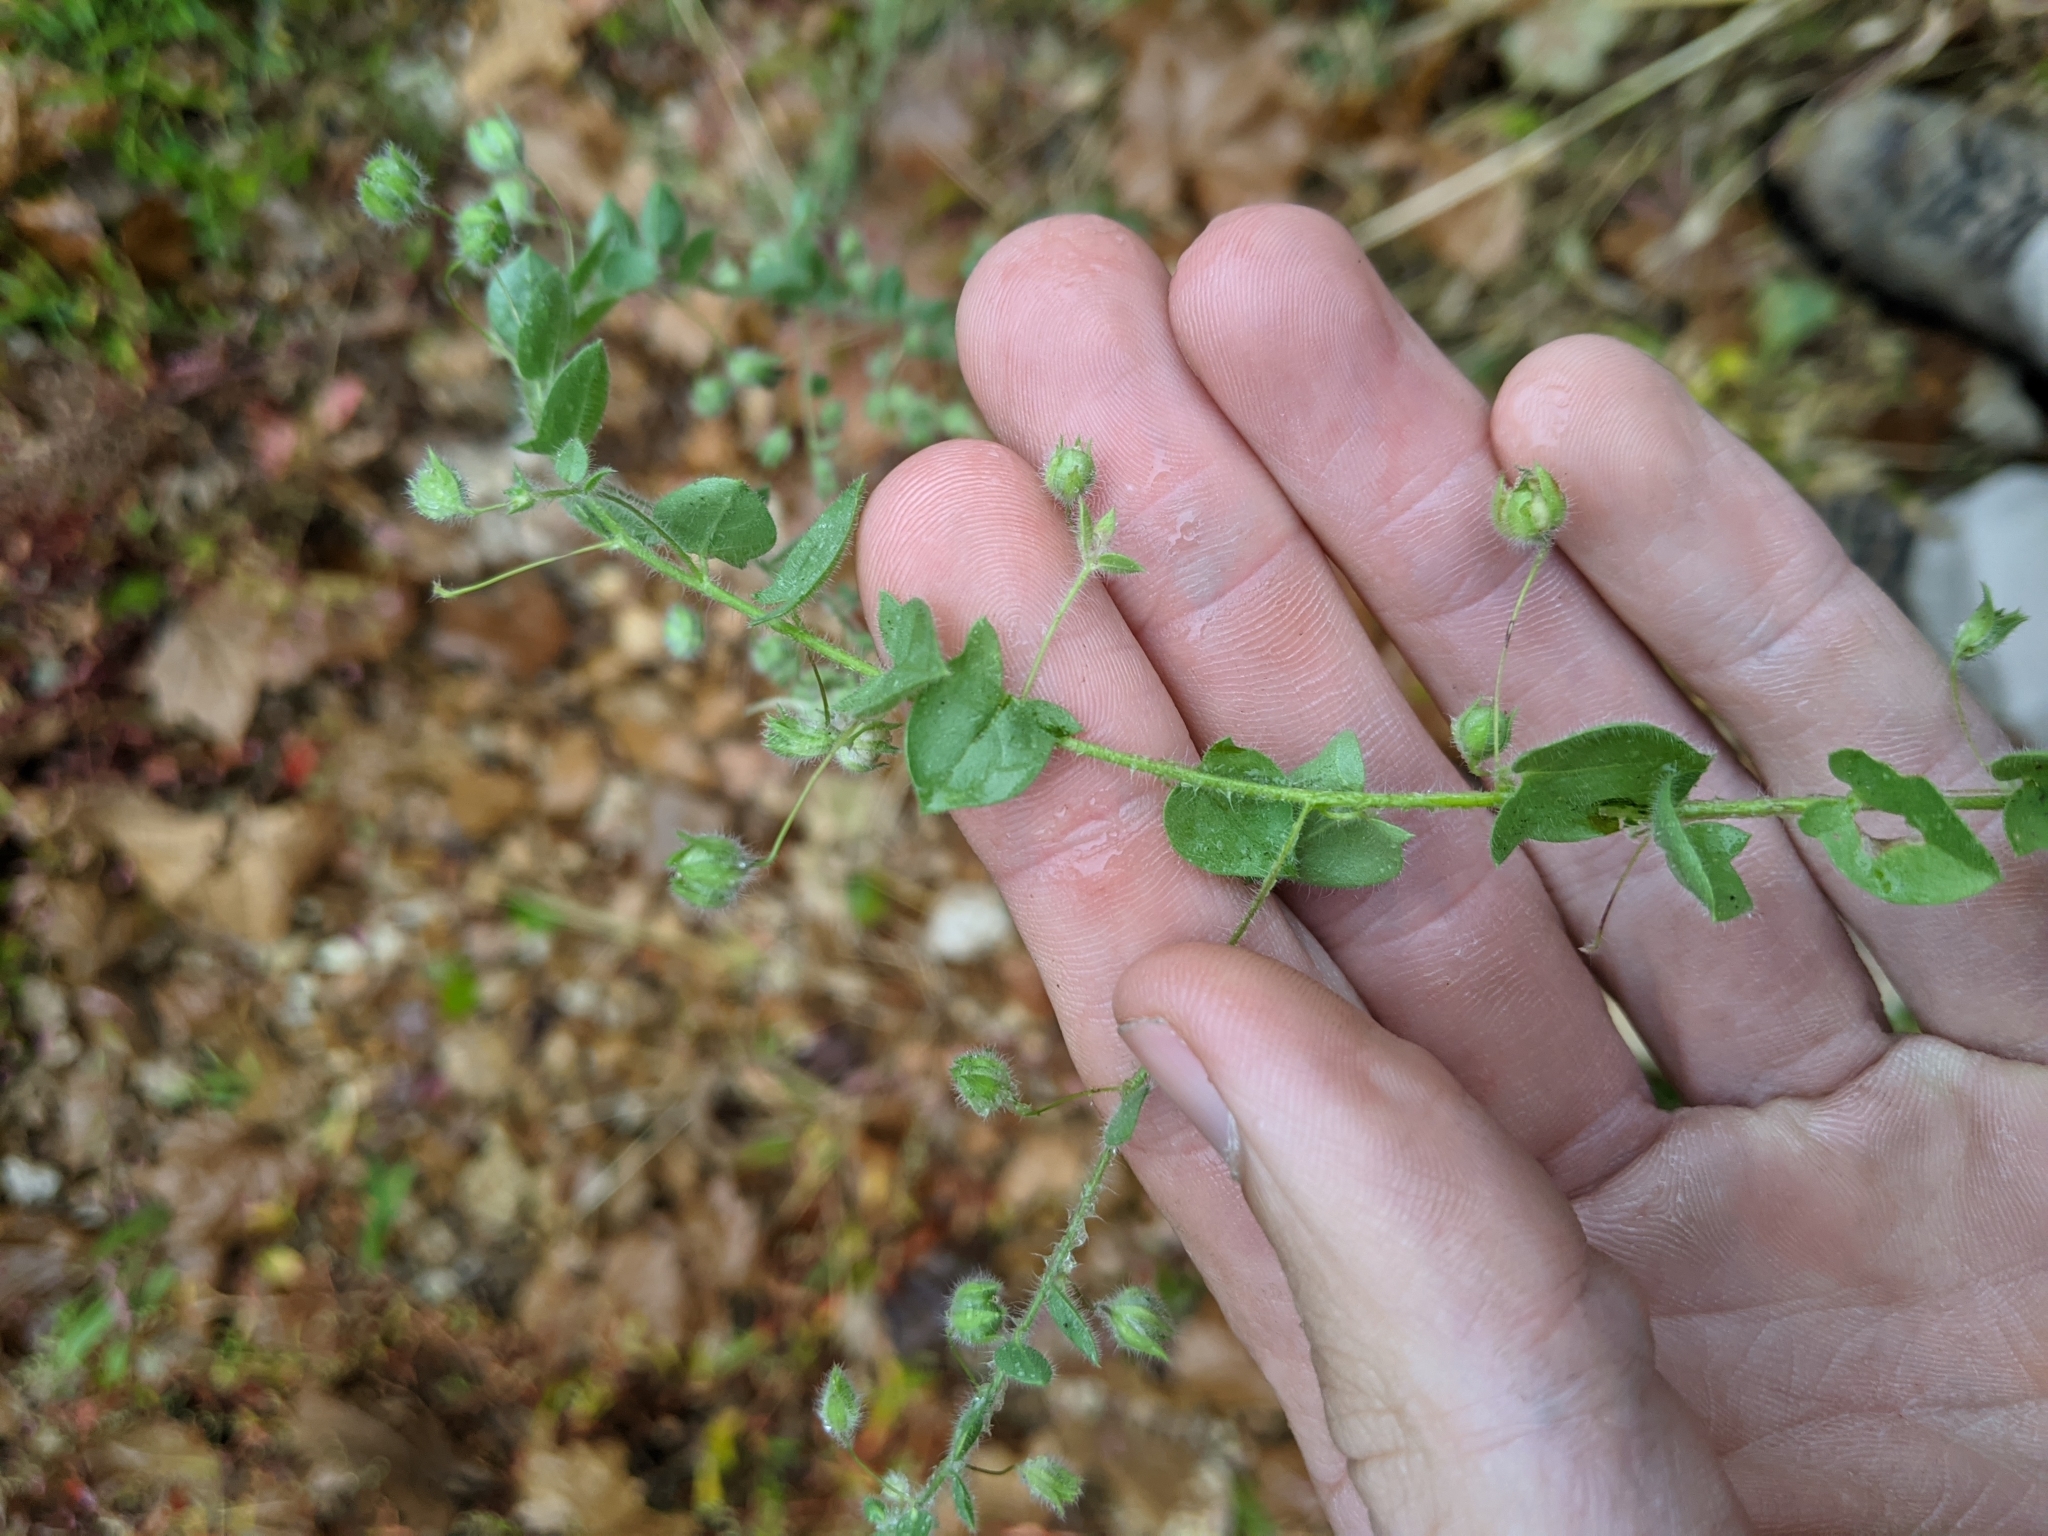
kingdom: Plantae
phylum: Tracheophyta
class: Magnoliopsida
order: Lamiales
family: Plantaginaceae
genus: Kickxia
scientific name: Kickxia elatine
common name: Sharp-leaved fluellen
